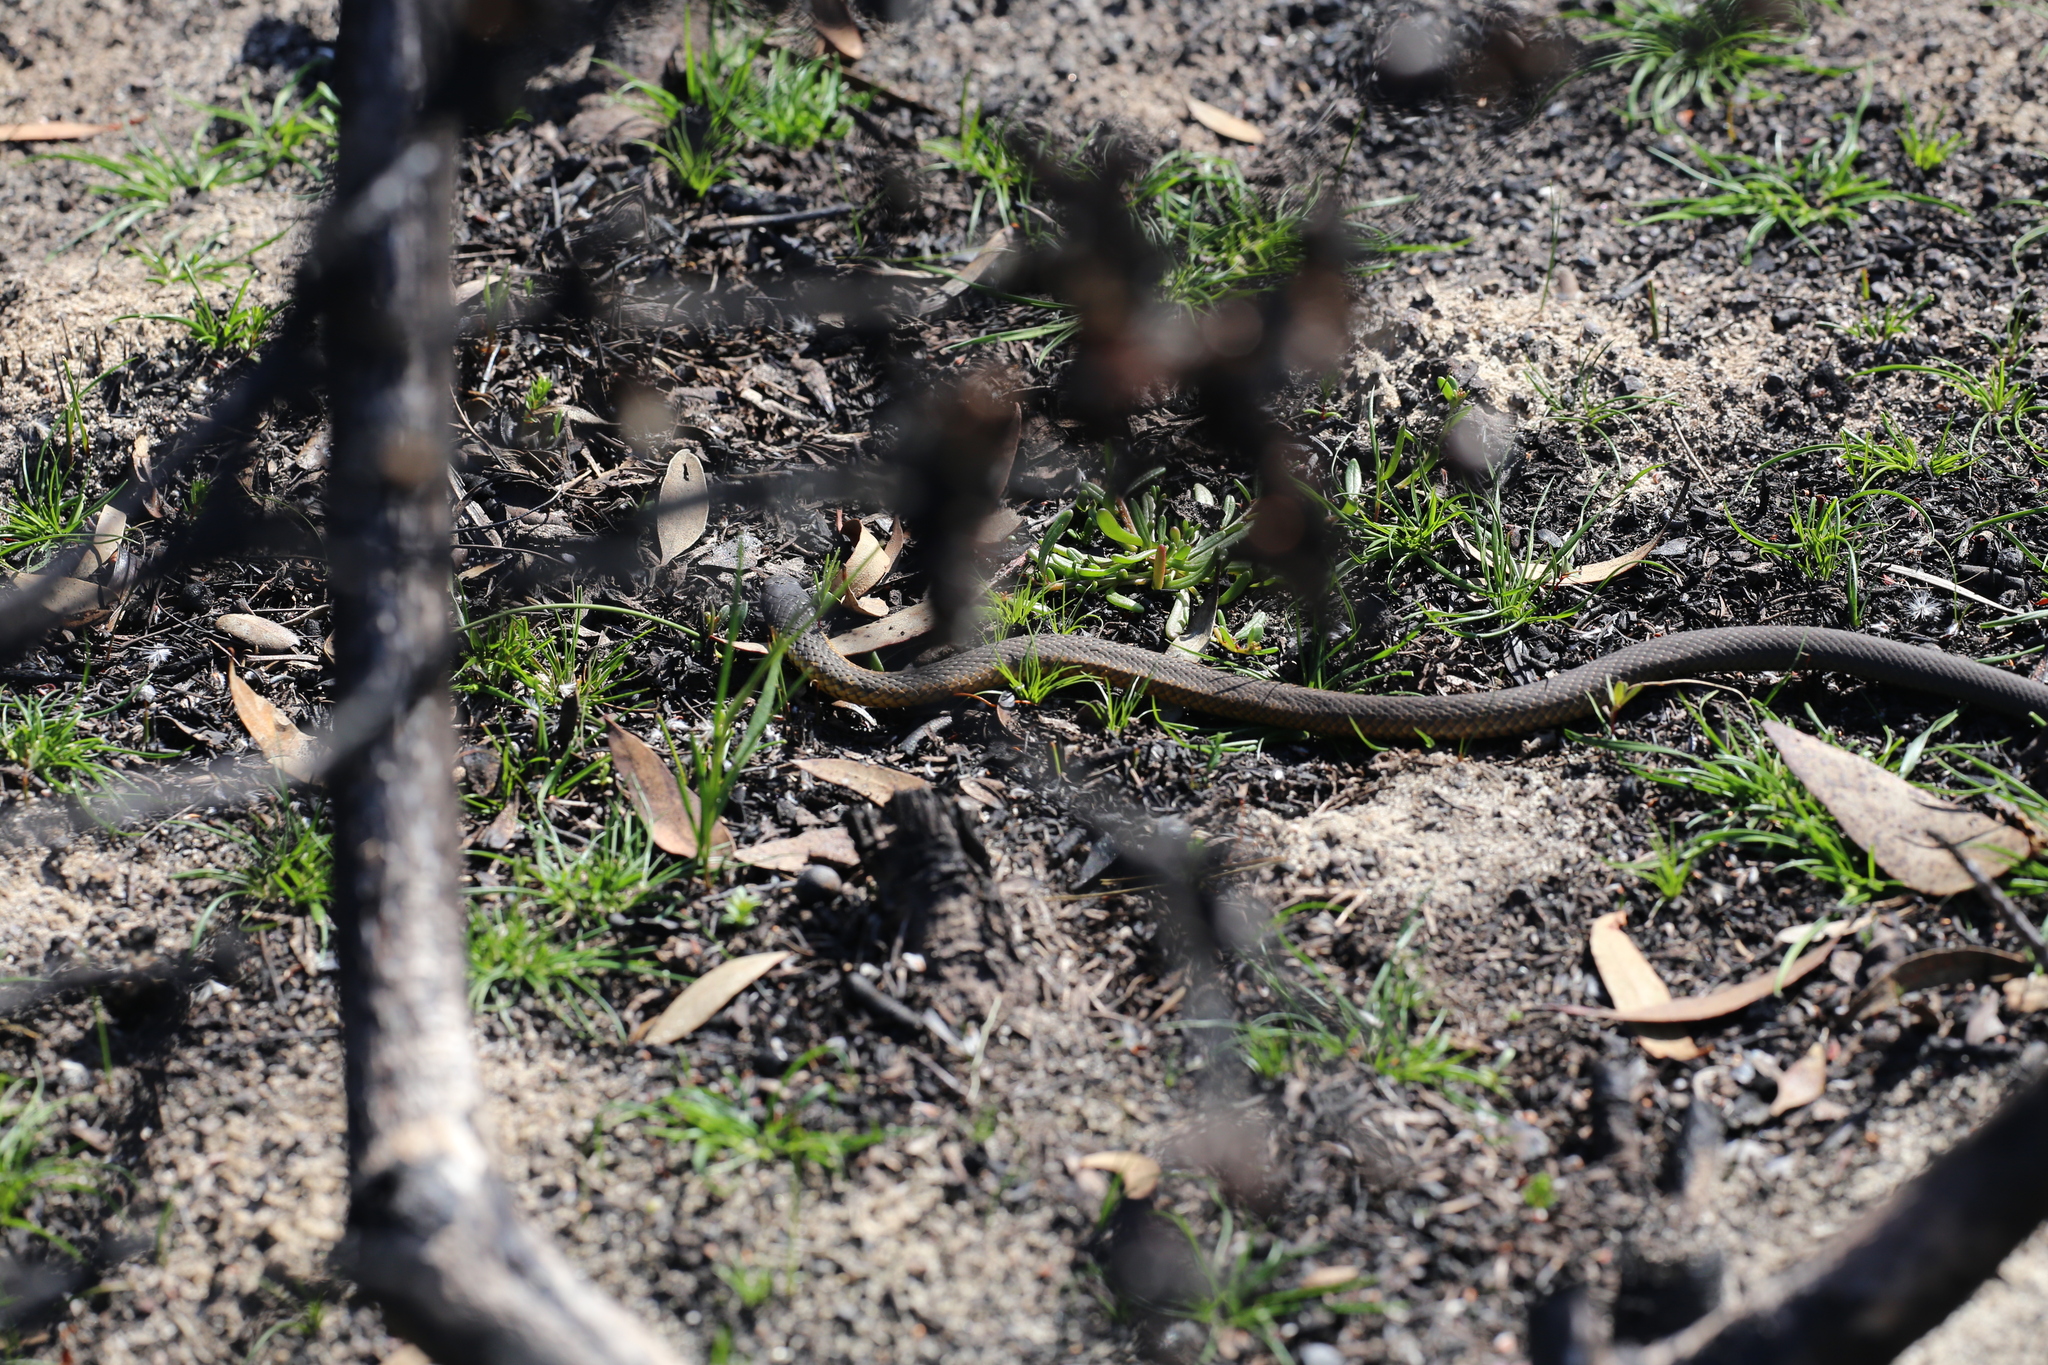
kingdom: Animalia
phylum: Chordata
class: Squamata
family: Elapidae
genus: Notechis
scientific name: Notechis scutatus
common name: Mainland tiger snake
